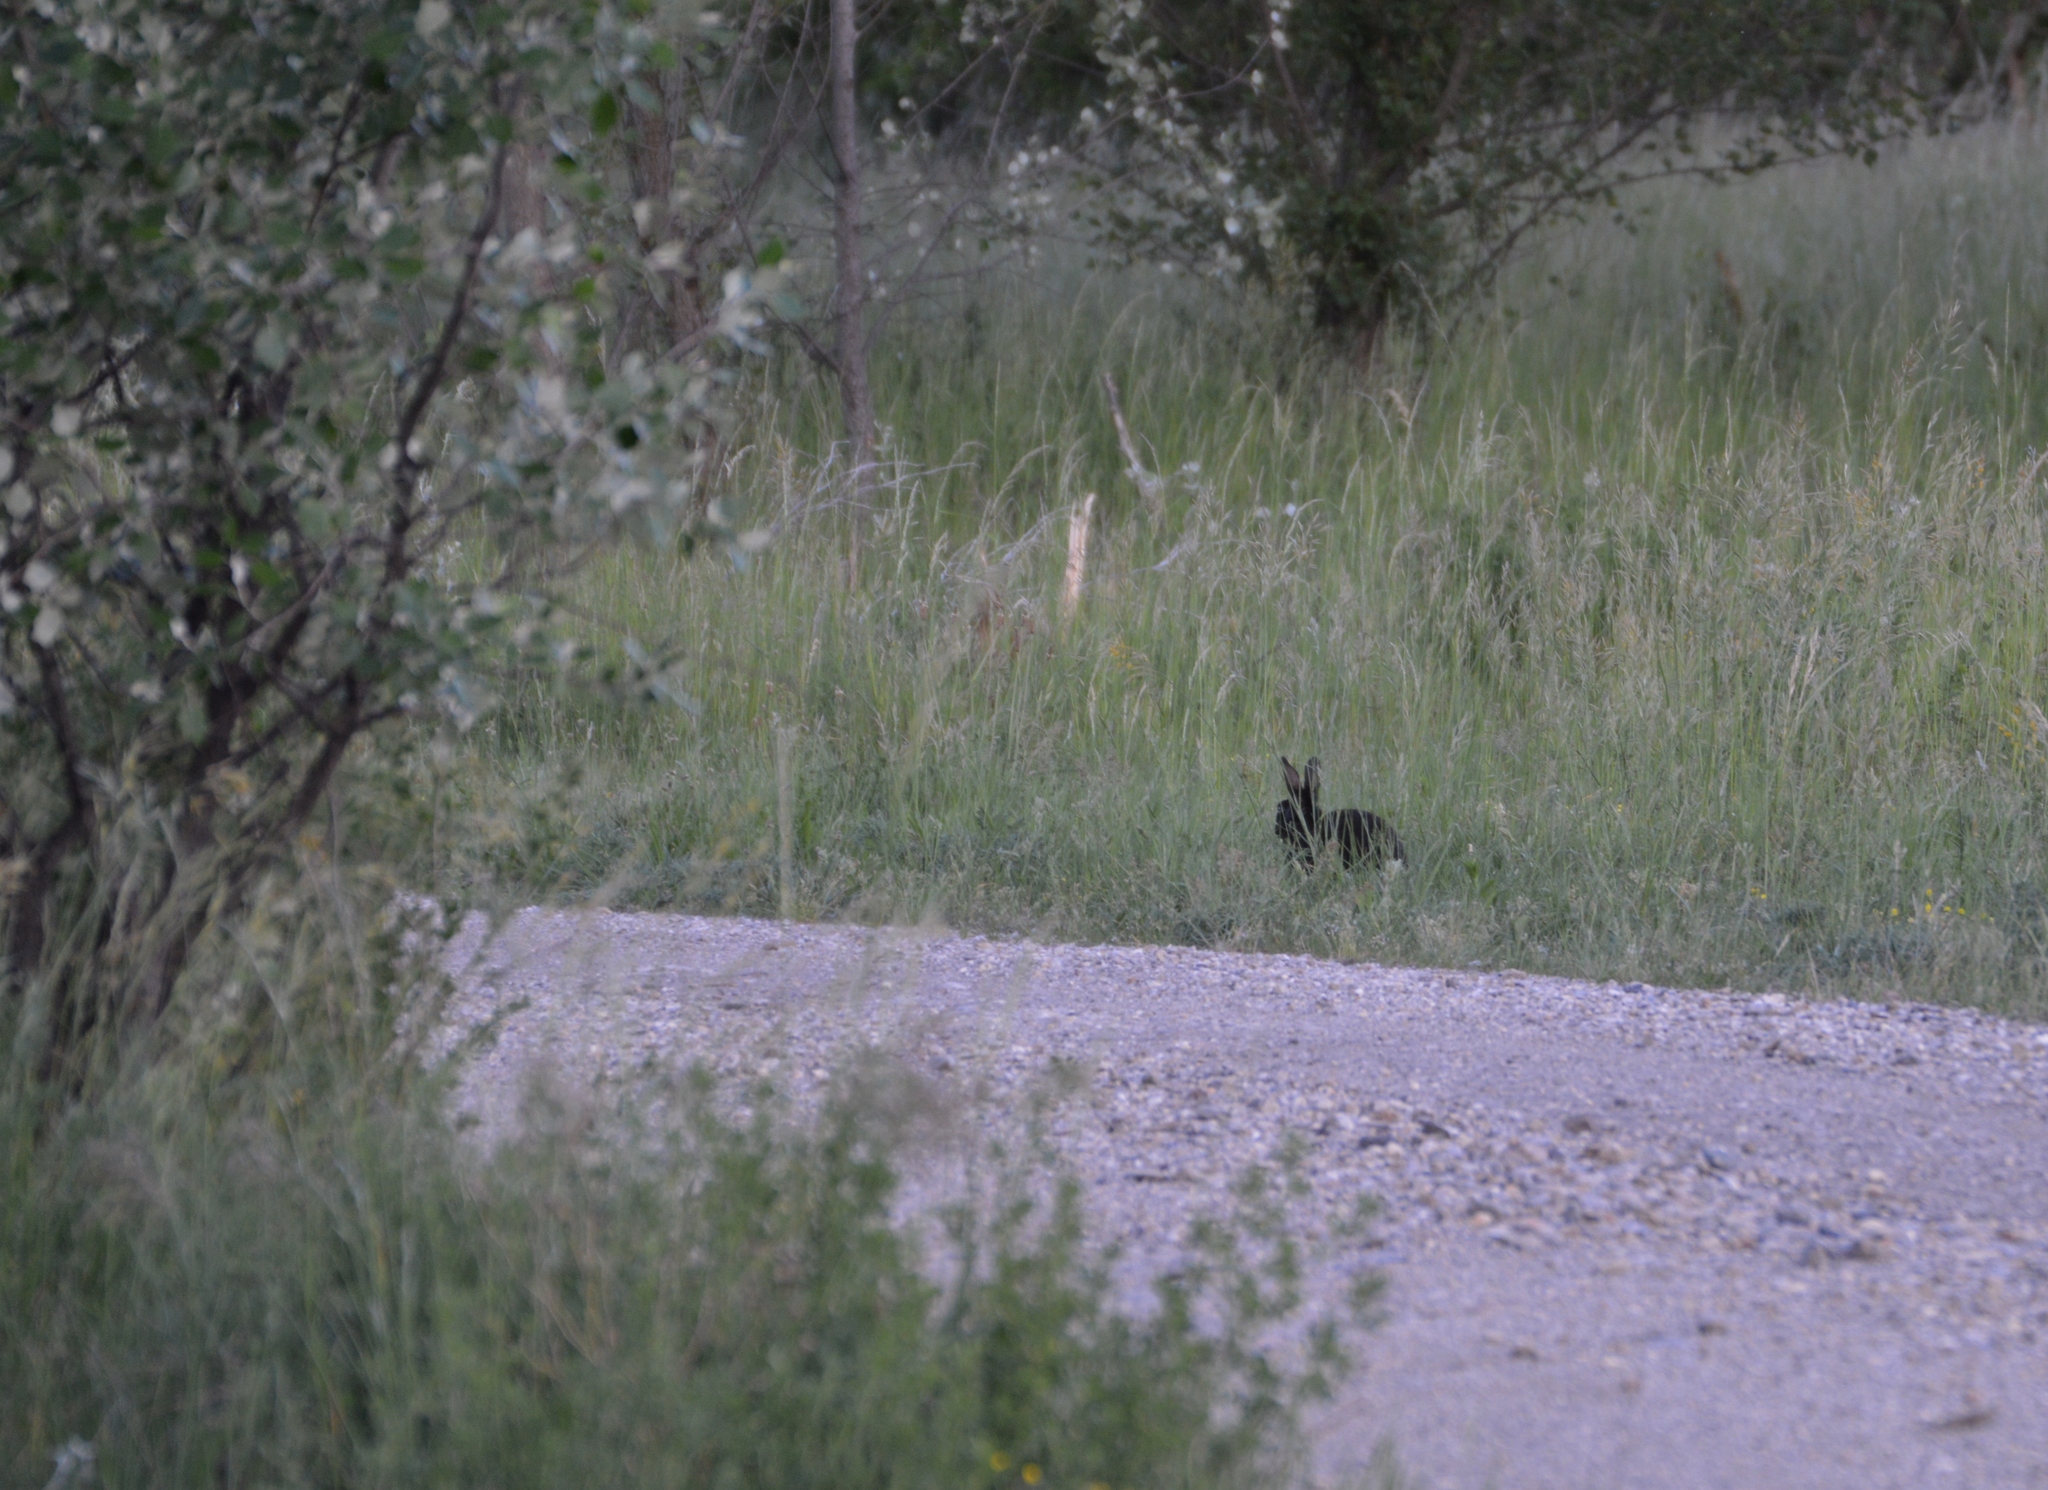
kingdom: Animalia
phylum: Chordata
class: Mammalia
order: Lagomorpha
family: Leporidae
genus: Oryctolagus
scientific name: Oryctolagus cuniculus
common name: European rabbit
